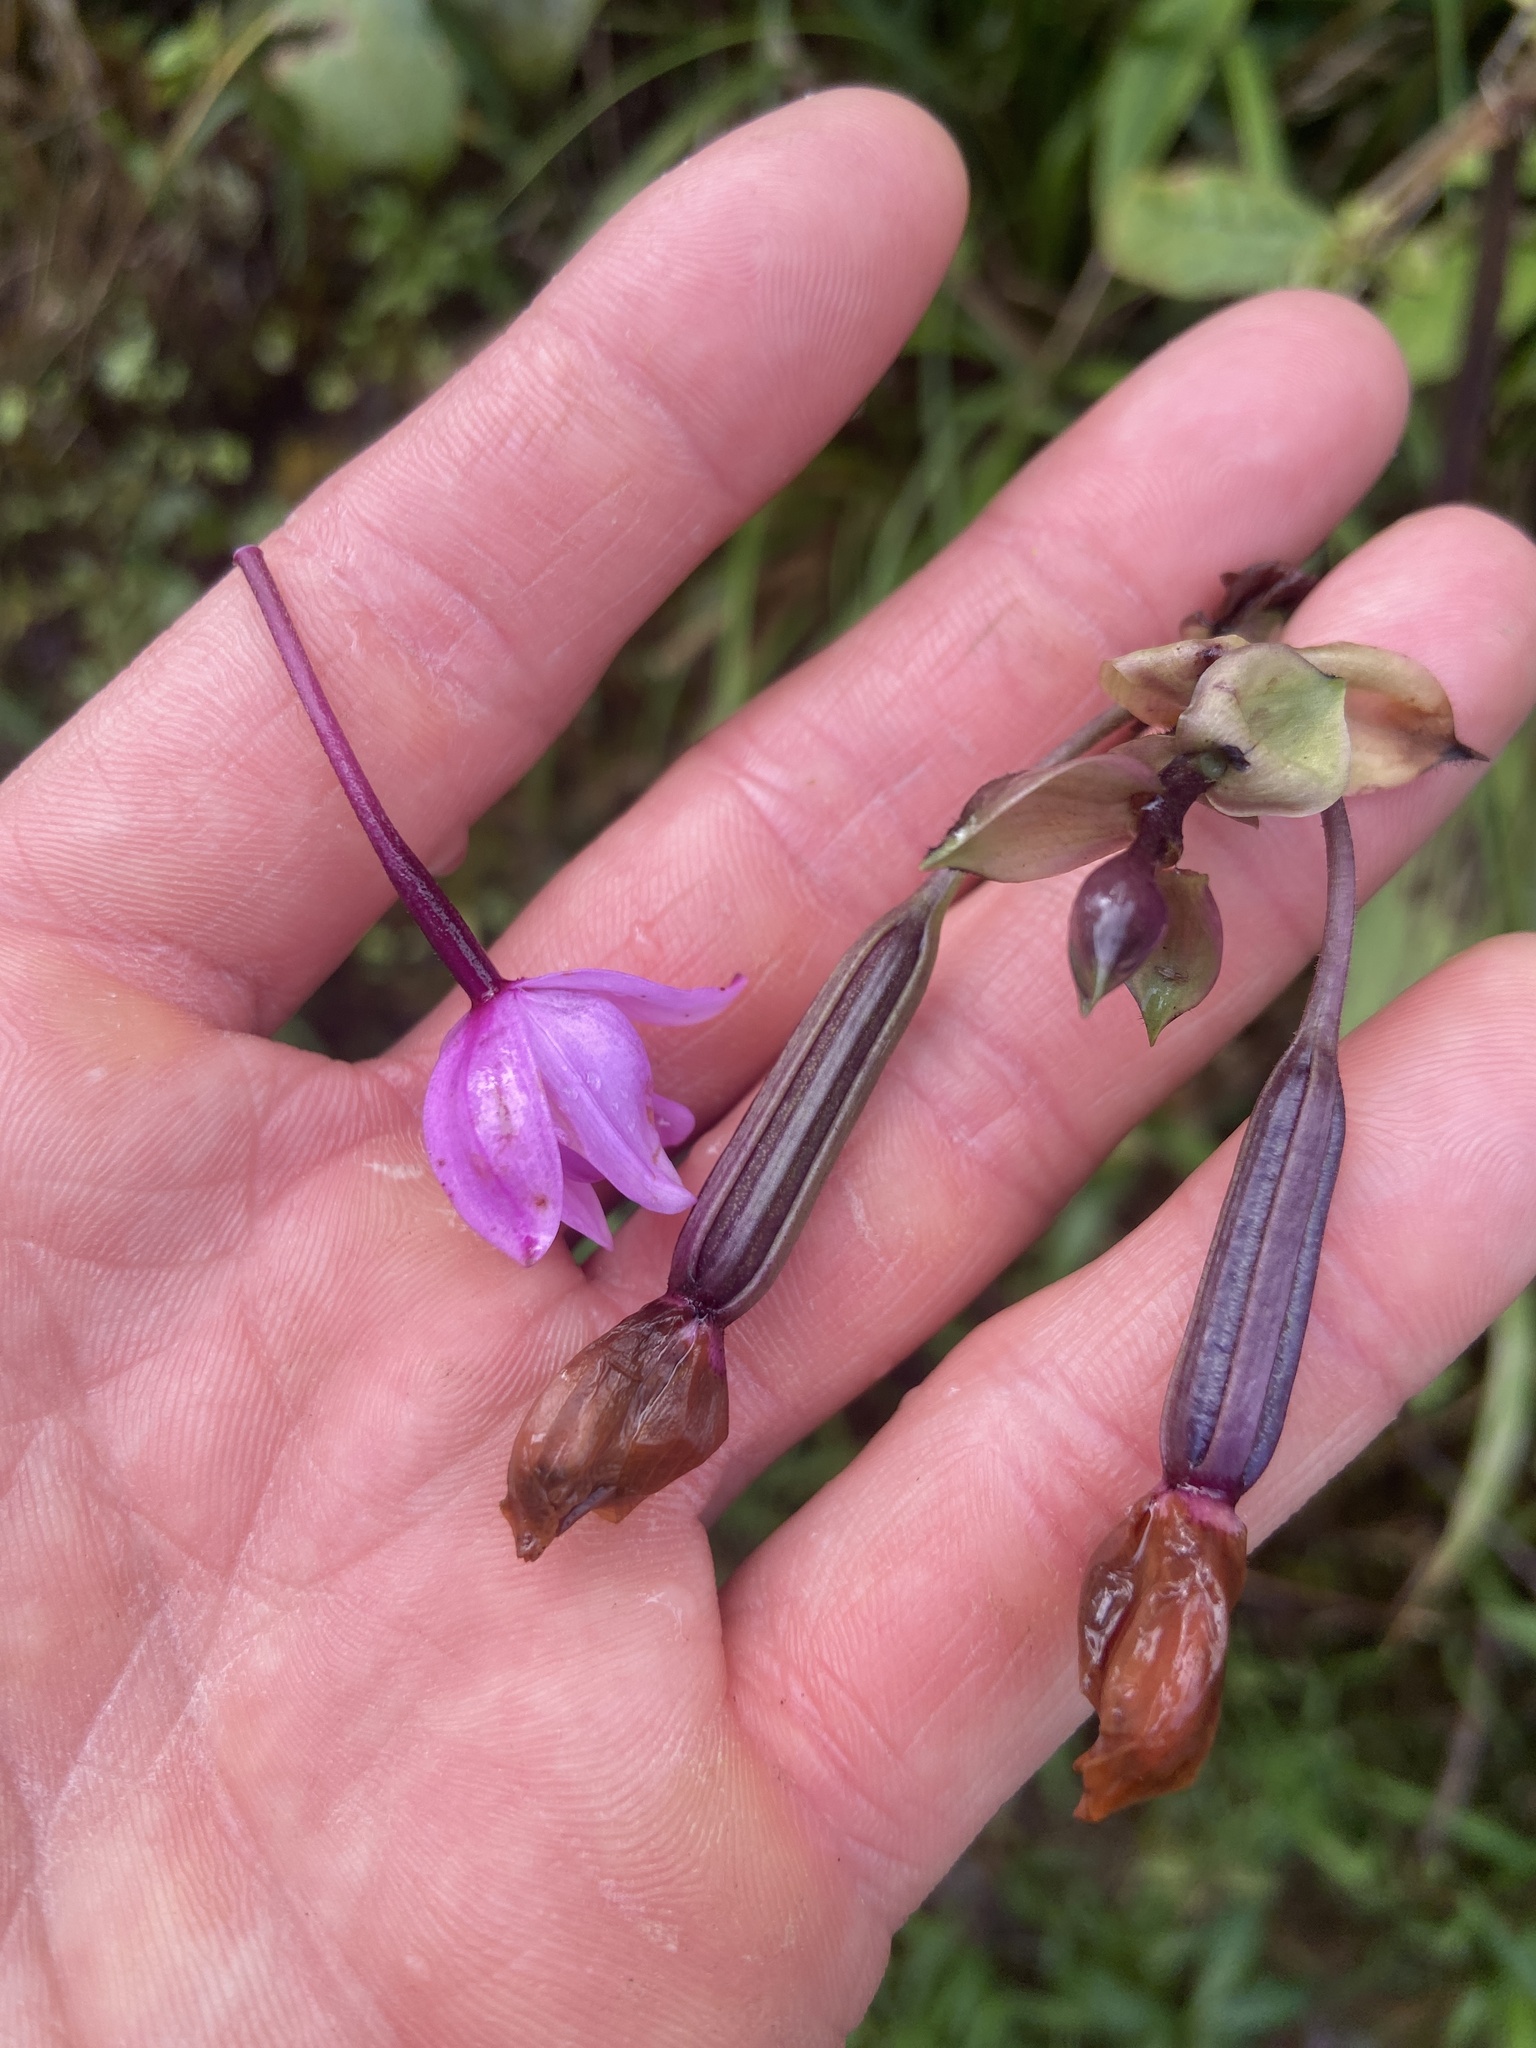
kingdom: Plantae
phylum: Tracheophyta
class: Liliopsida
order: Asparagales
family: Orchidaceae
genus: Spathoglottis
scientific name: Spathoglottis plicata
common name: Philippine ground orchid
